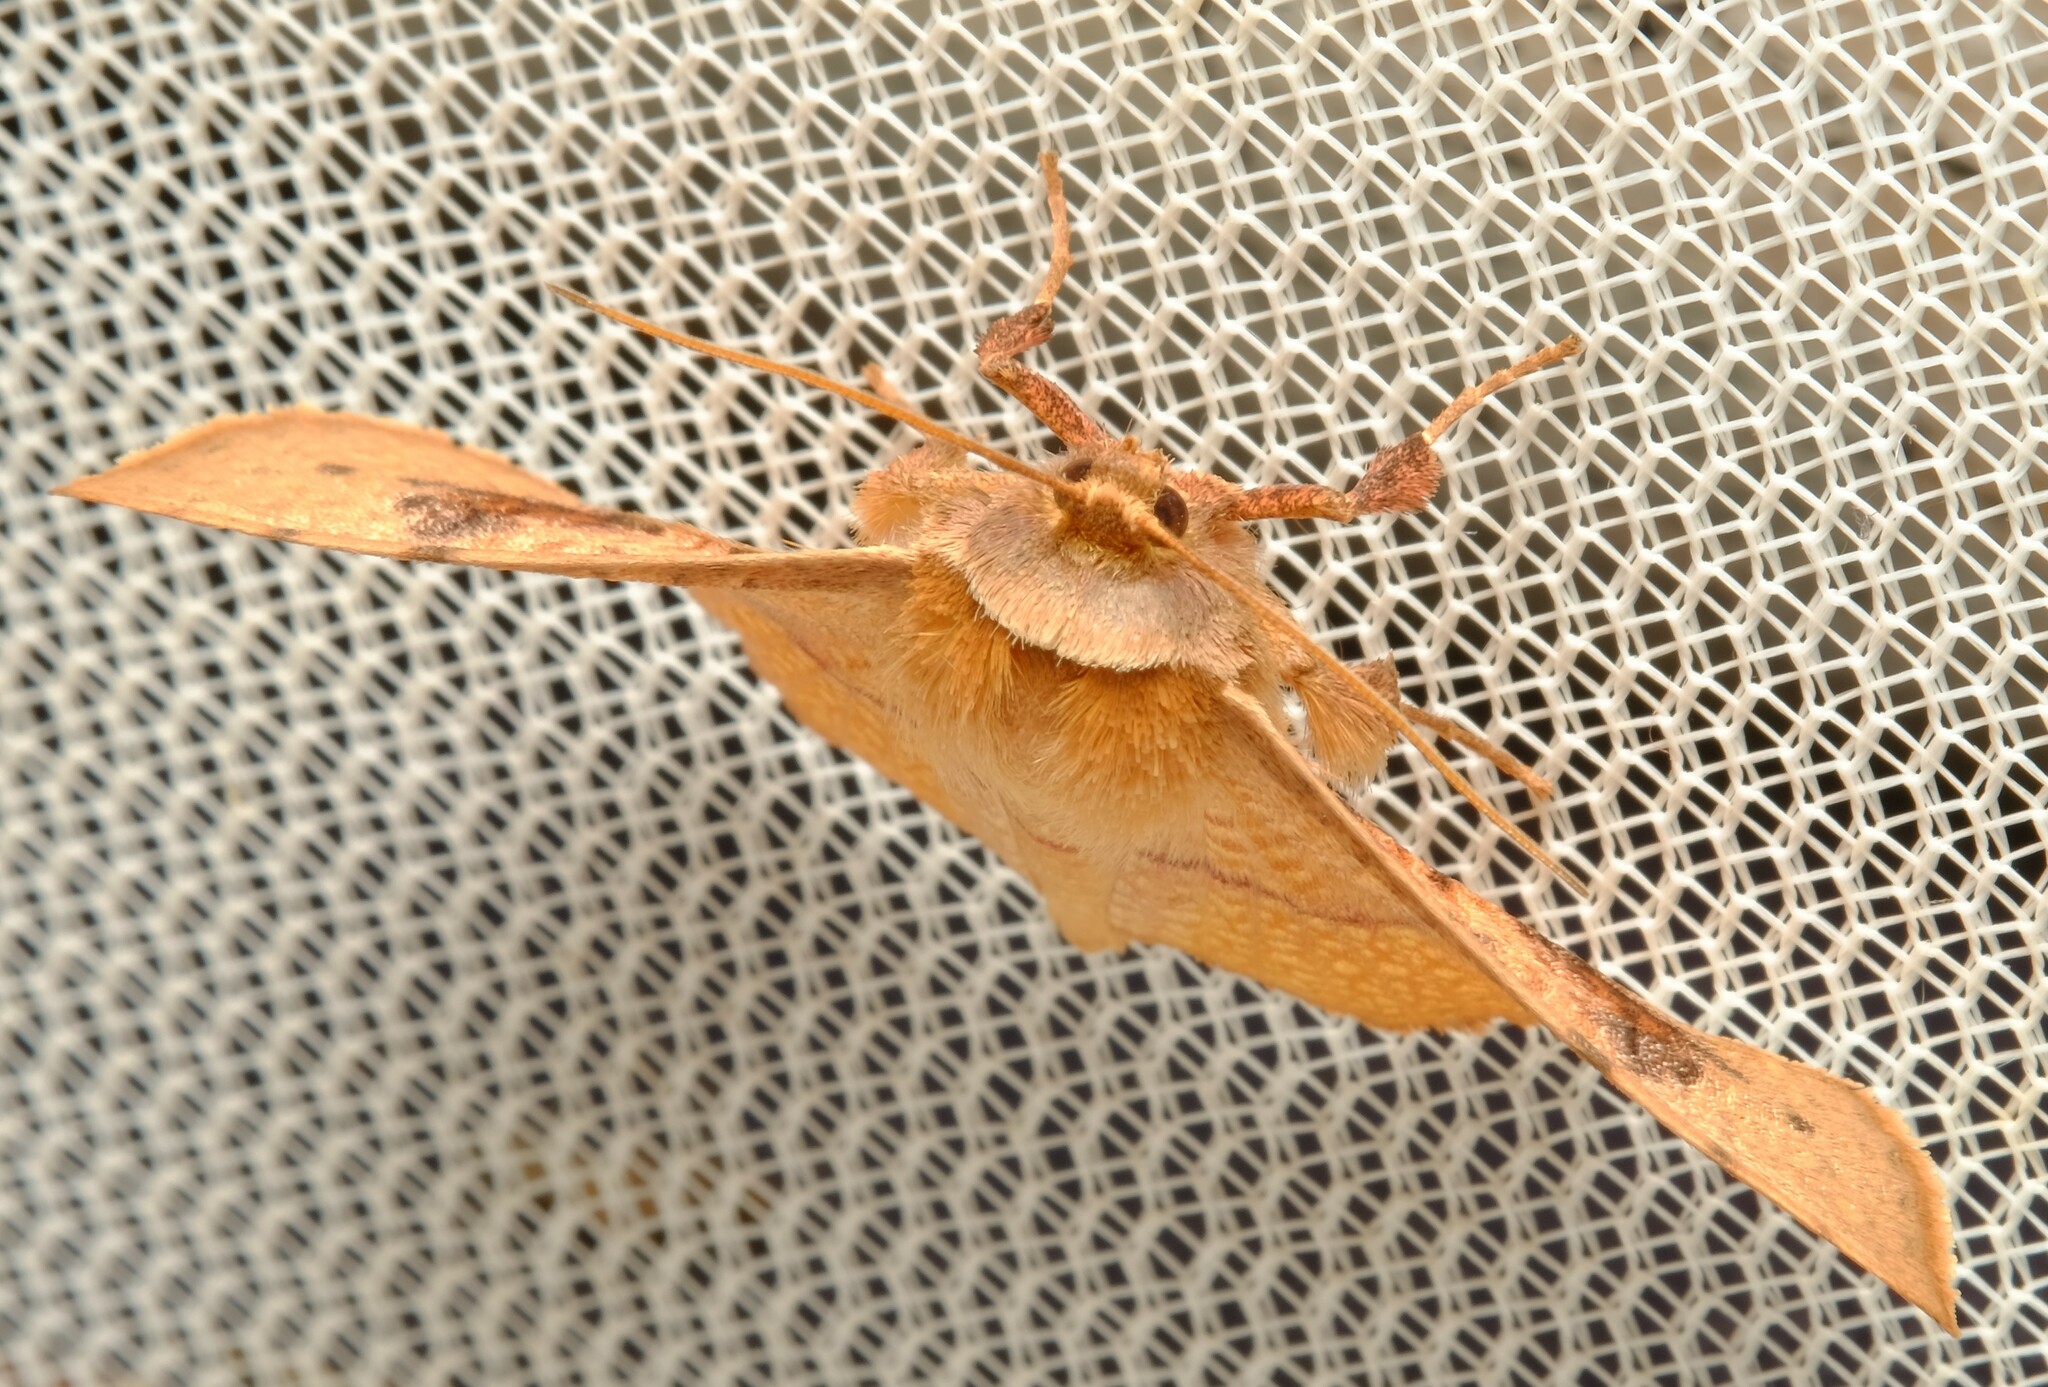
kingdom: Animalia
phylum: Arthropoda
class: Insecta
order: Lepidoptera
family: Thyrididae
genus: Aglaopus
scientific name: Aglaopus pyrrhata
